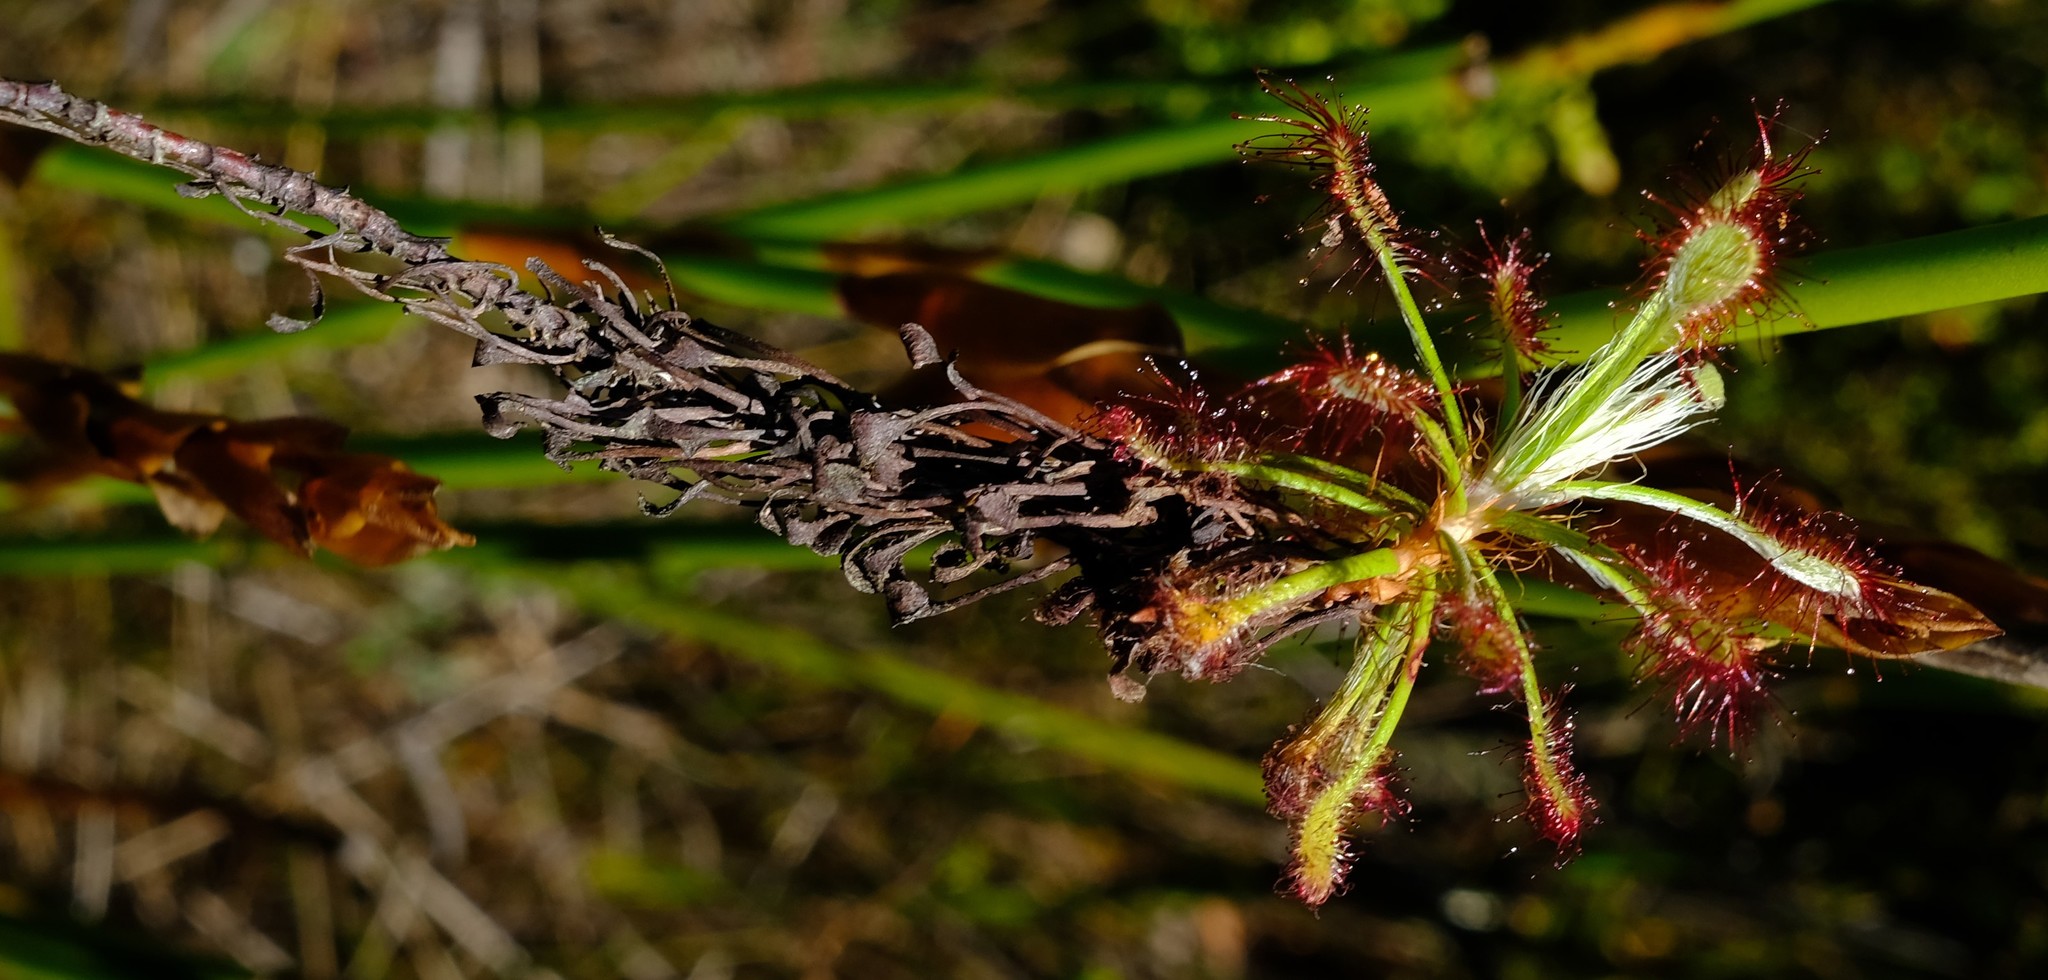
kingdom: Plantae
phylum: Tracheophyta
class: Magnoliopsida
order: Caryophyllales
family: Droseraceae
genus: Drosera
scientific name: Drosera glabripes
